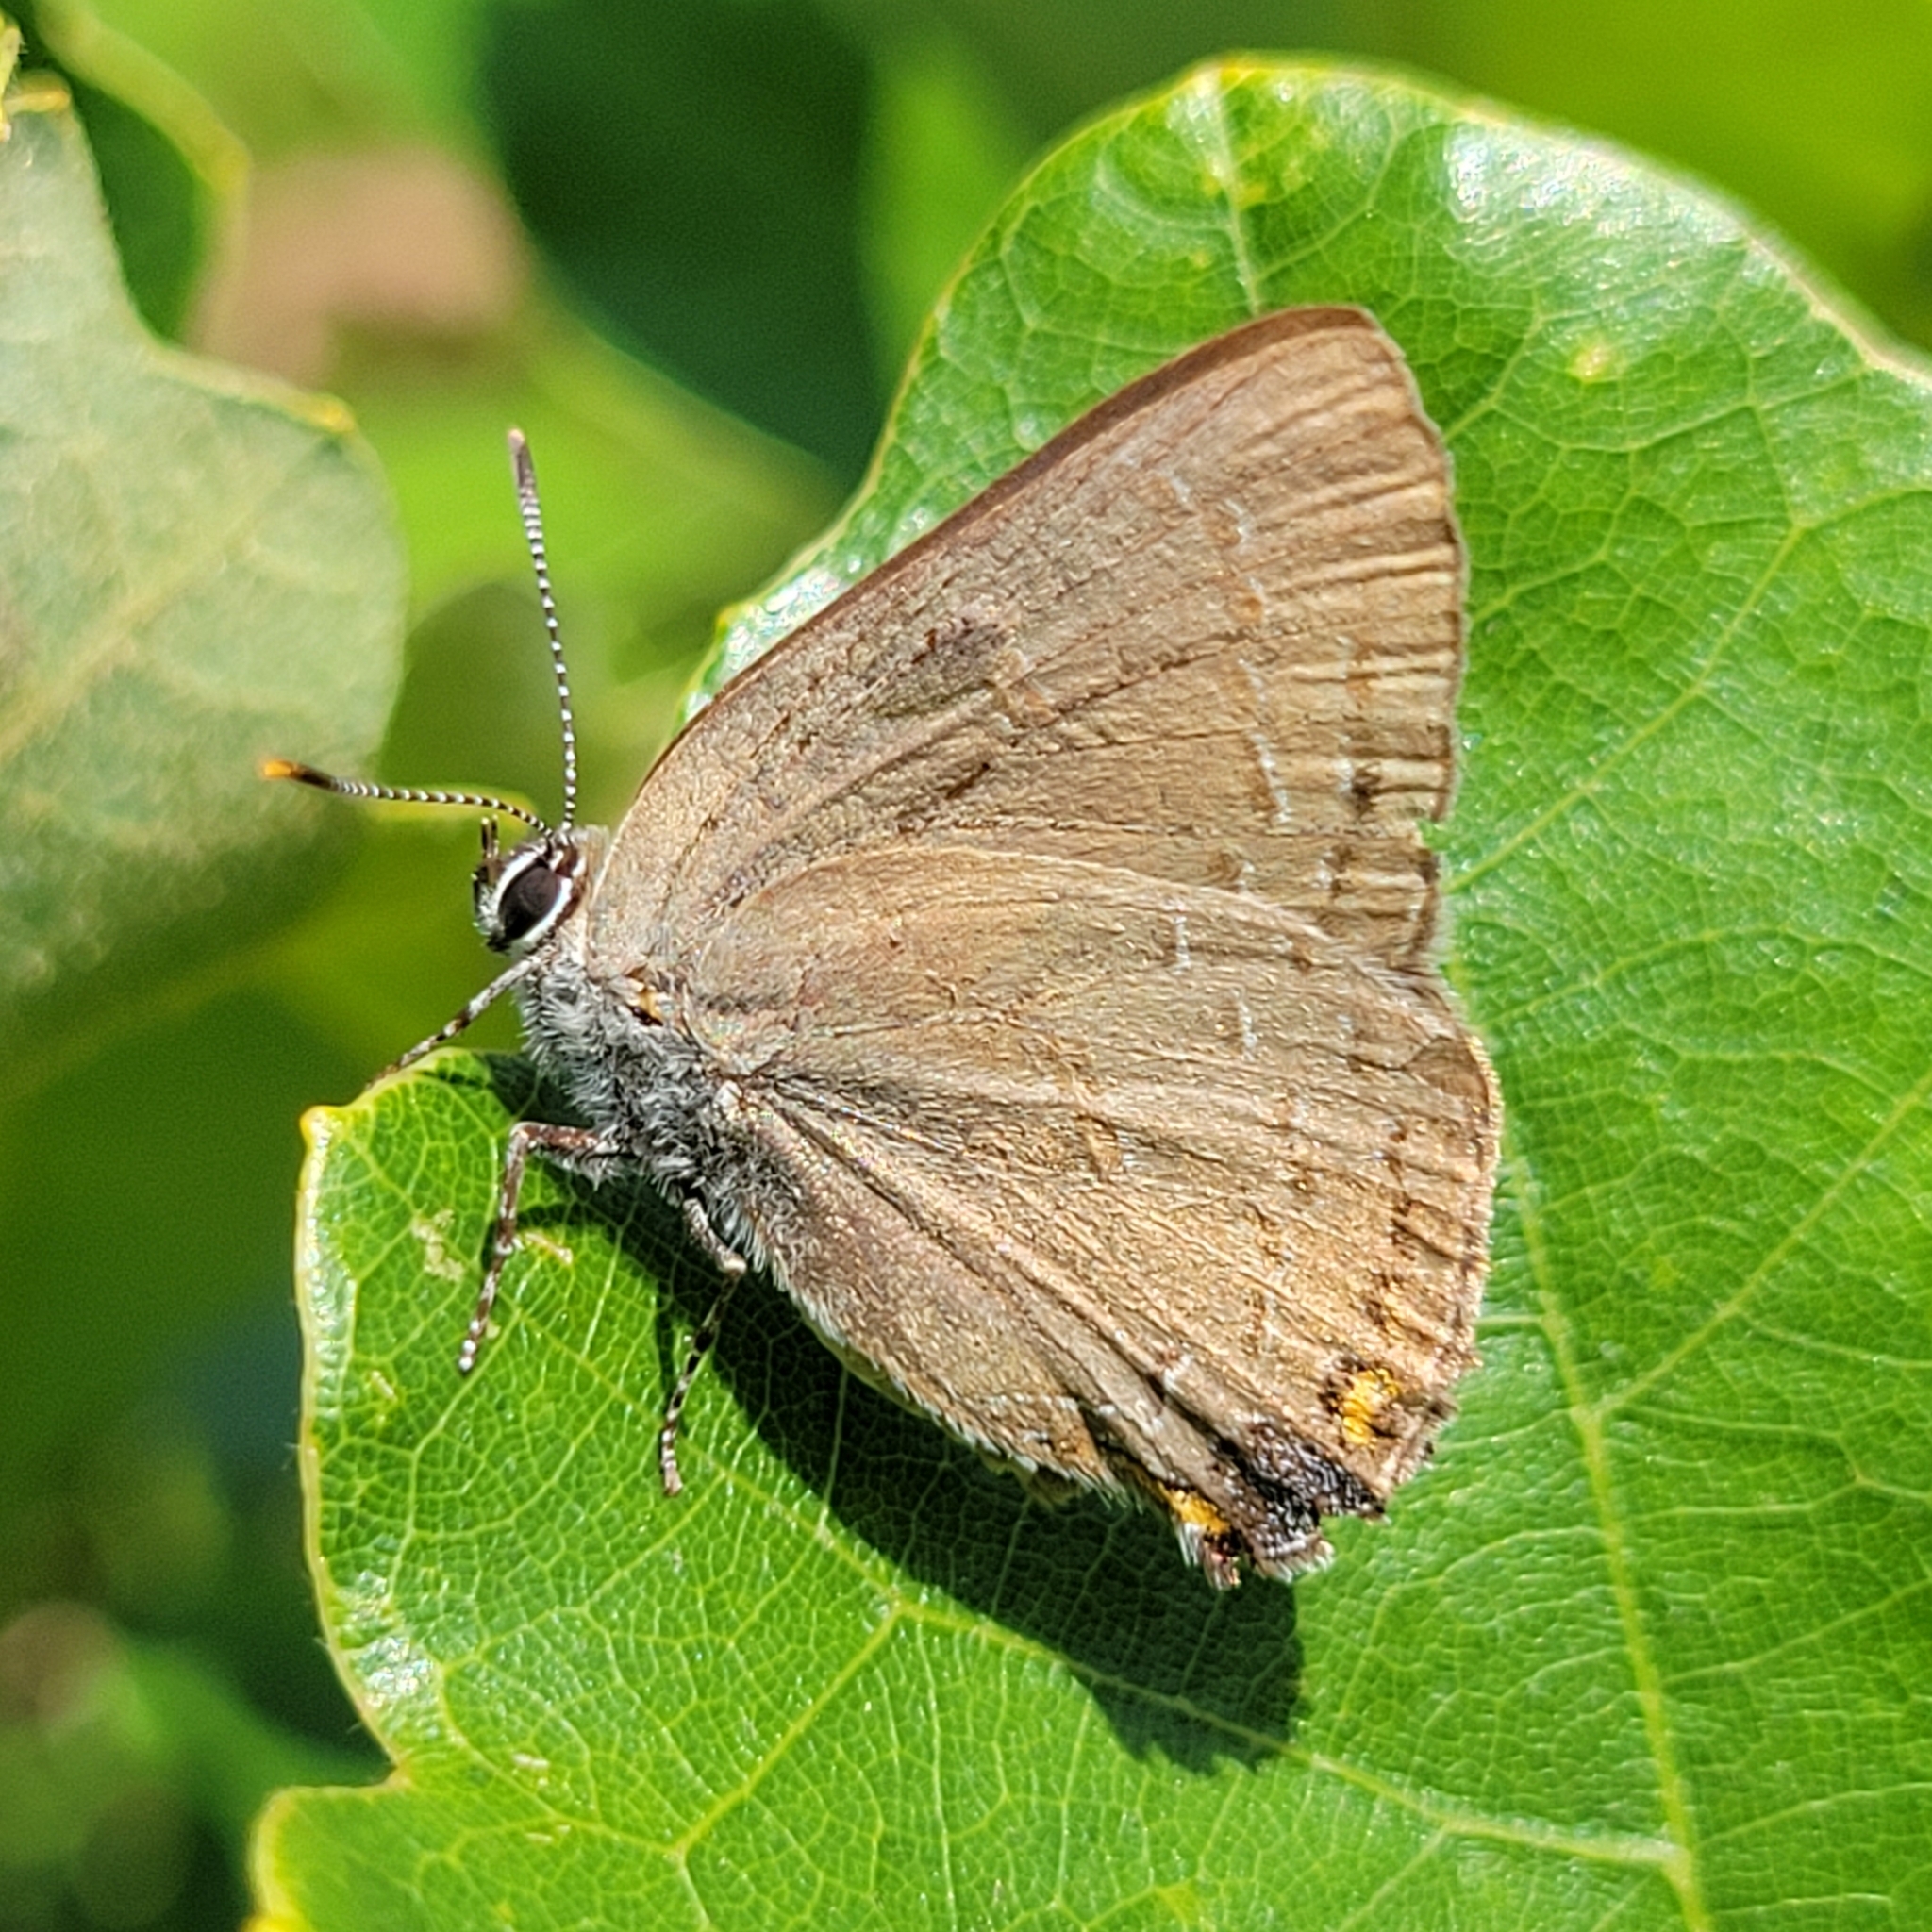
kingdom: Animalia
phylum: Arthropoda
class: Insecta
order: Lepidoptera
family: Lycaenidae
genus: Satyrium
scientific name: Satyrium edwardsii
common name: Edwards' hairstreak
